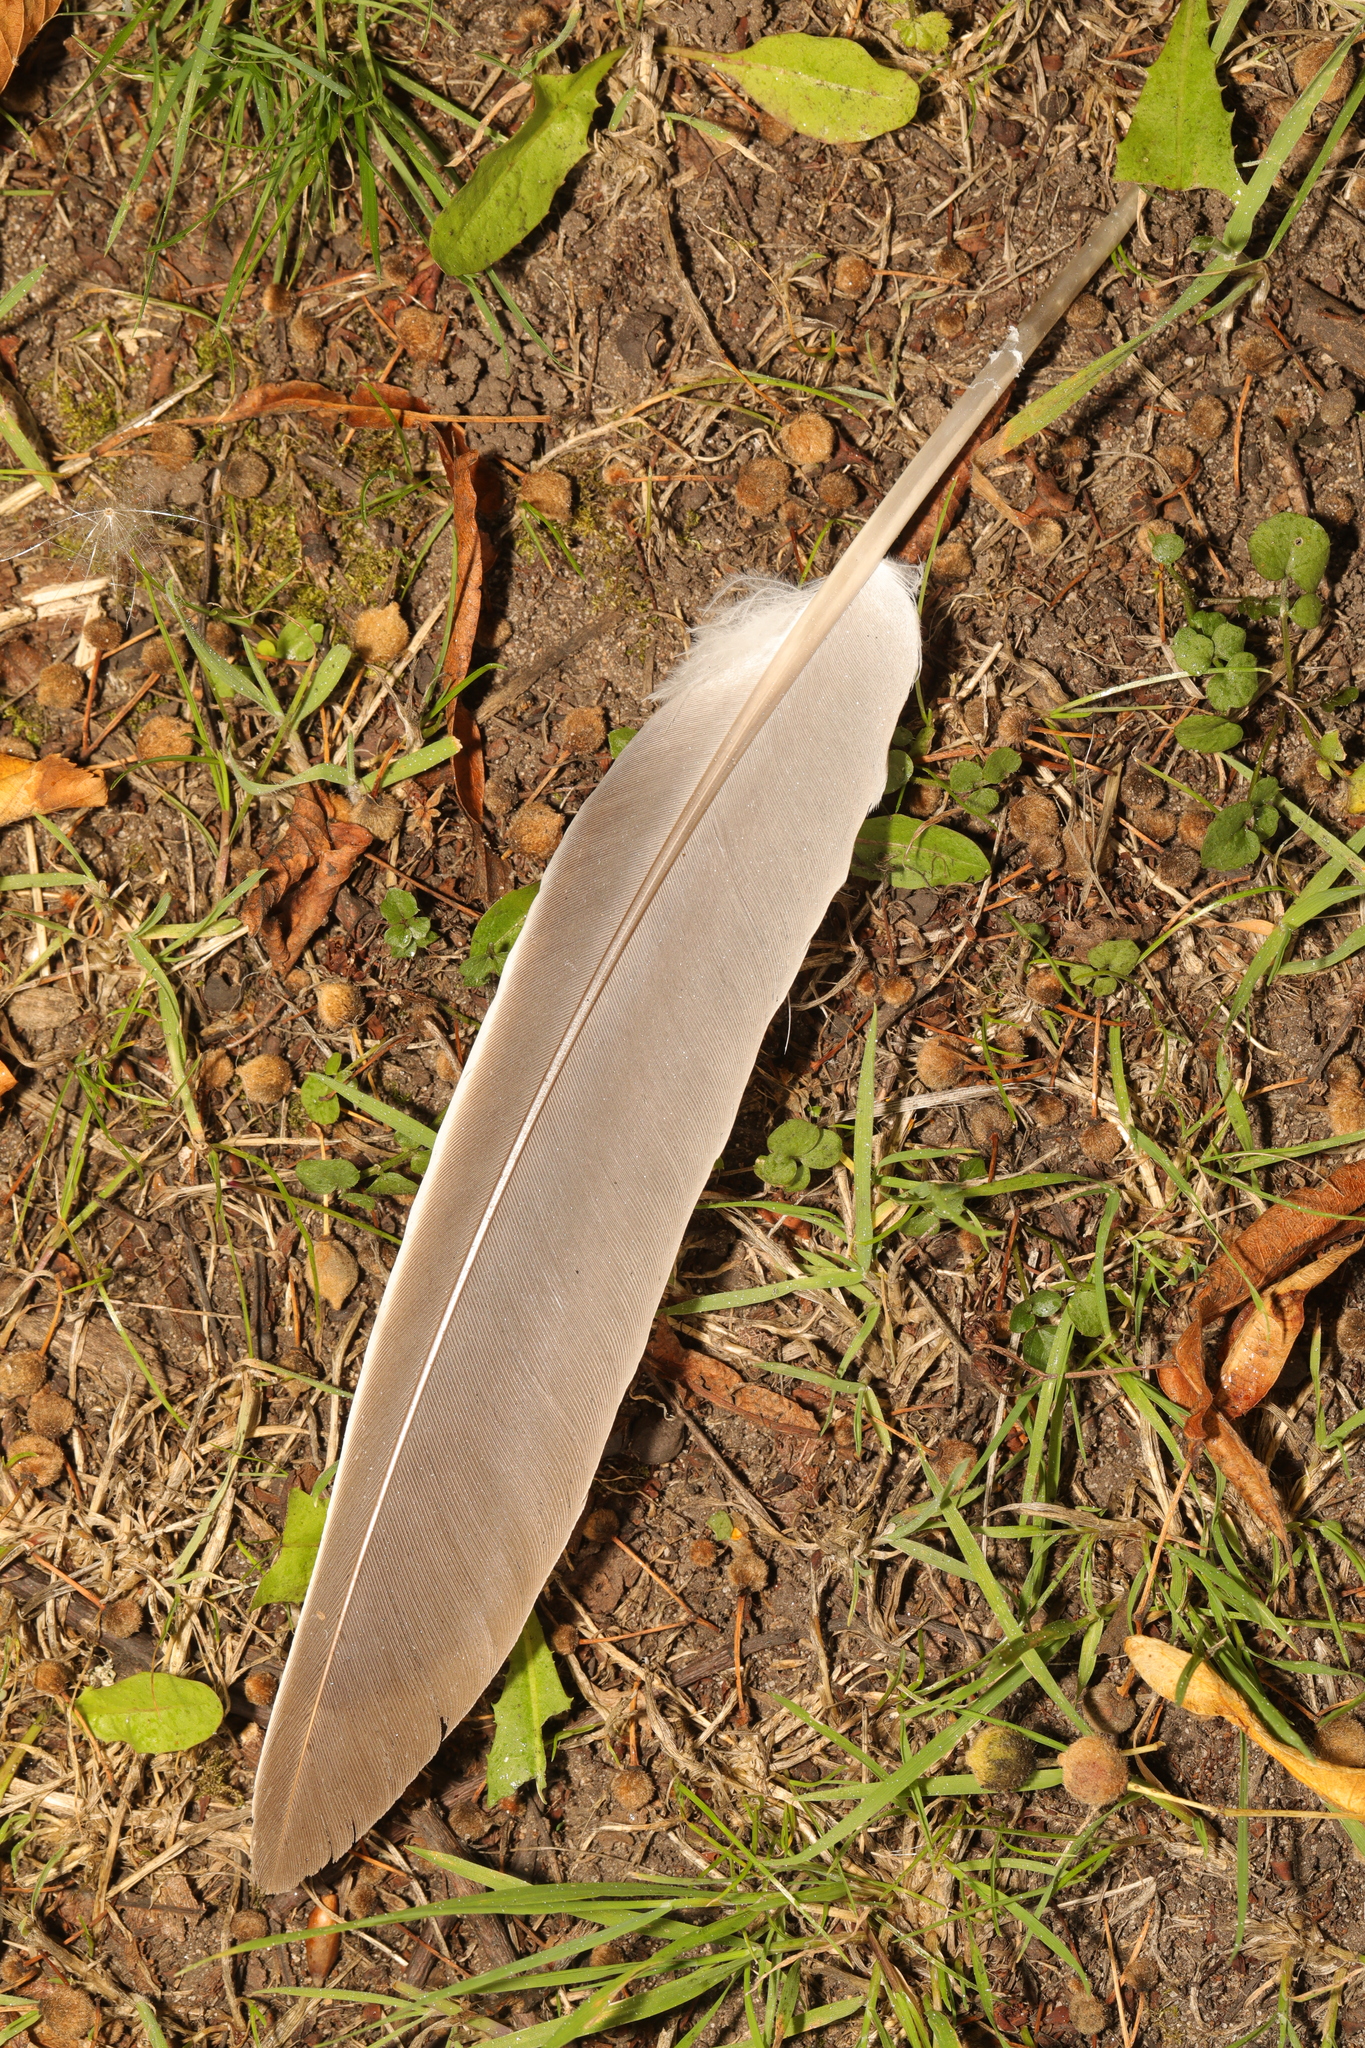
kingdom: Animalia
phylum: Chordata
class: Aves
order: Columbiformes
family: Columbidae
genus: Columba
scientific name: Columba palumbus
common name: Common wood pigeon
